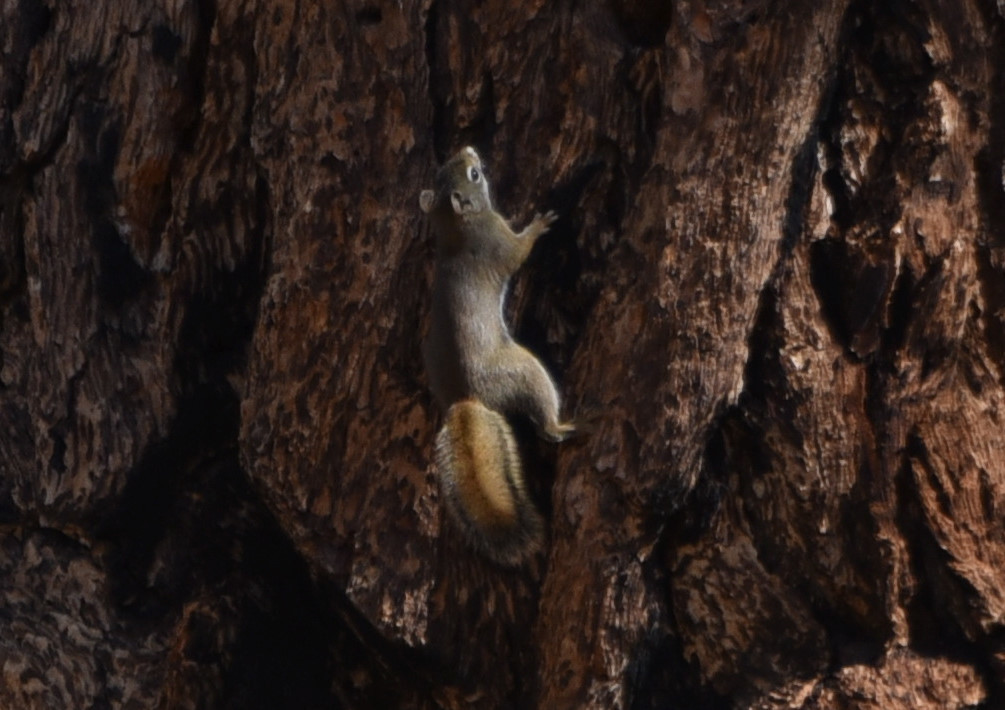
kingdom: Animalia
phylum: Chordata
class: Mammalia
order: Rodentia
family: Sciuridae
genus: Tamiasciurus
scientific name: Tamiasciurus hudsonicus
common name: Red squirrel
